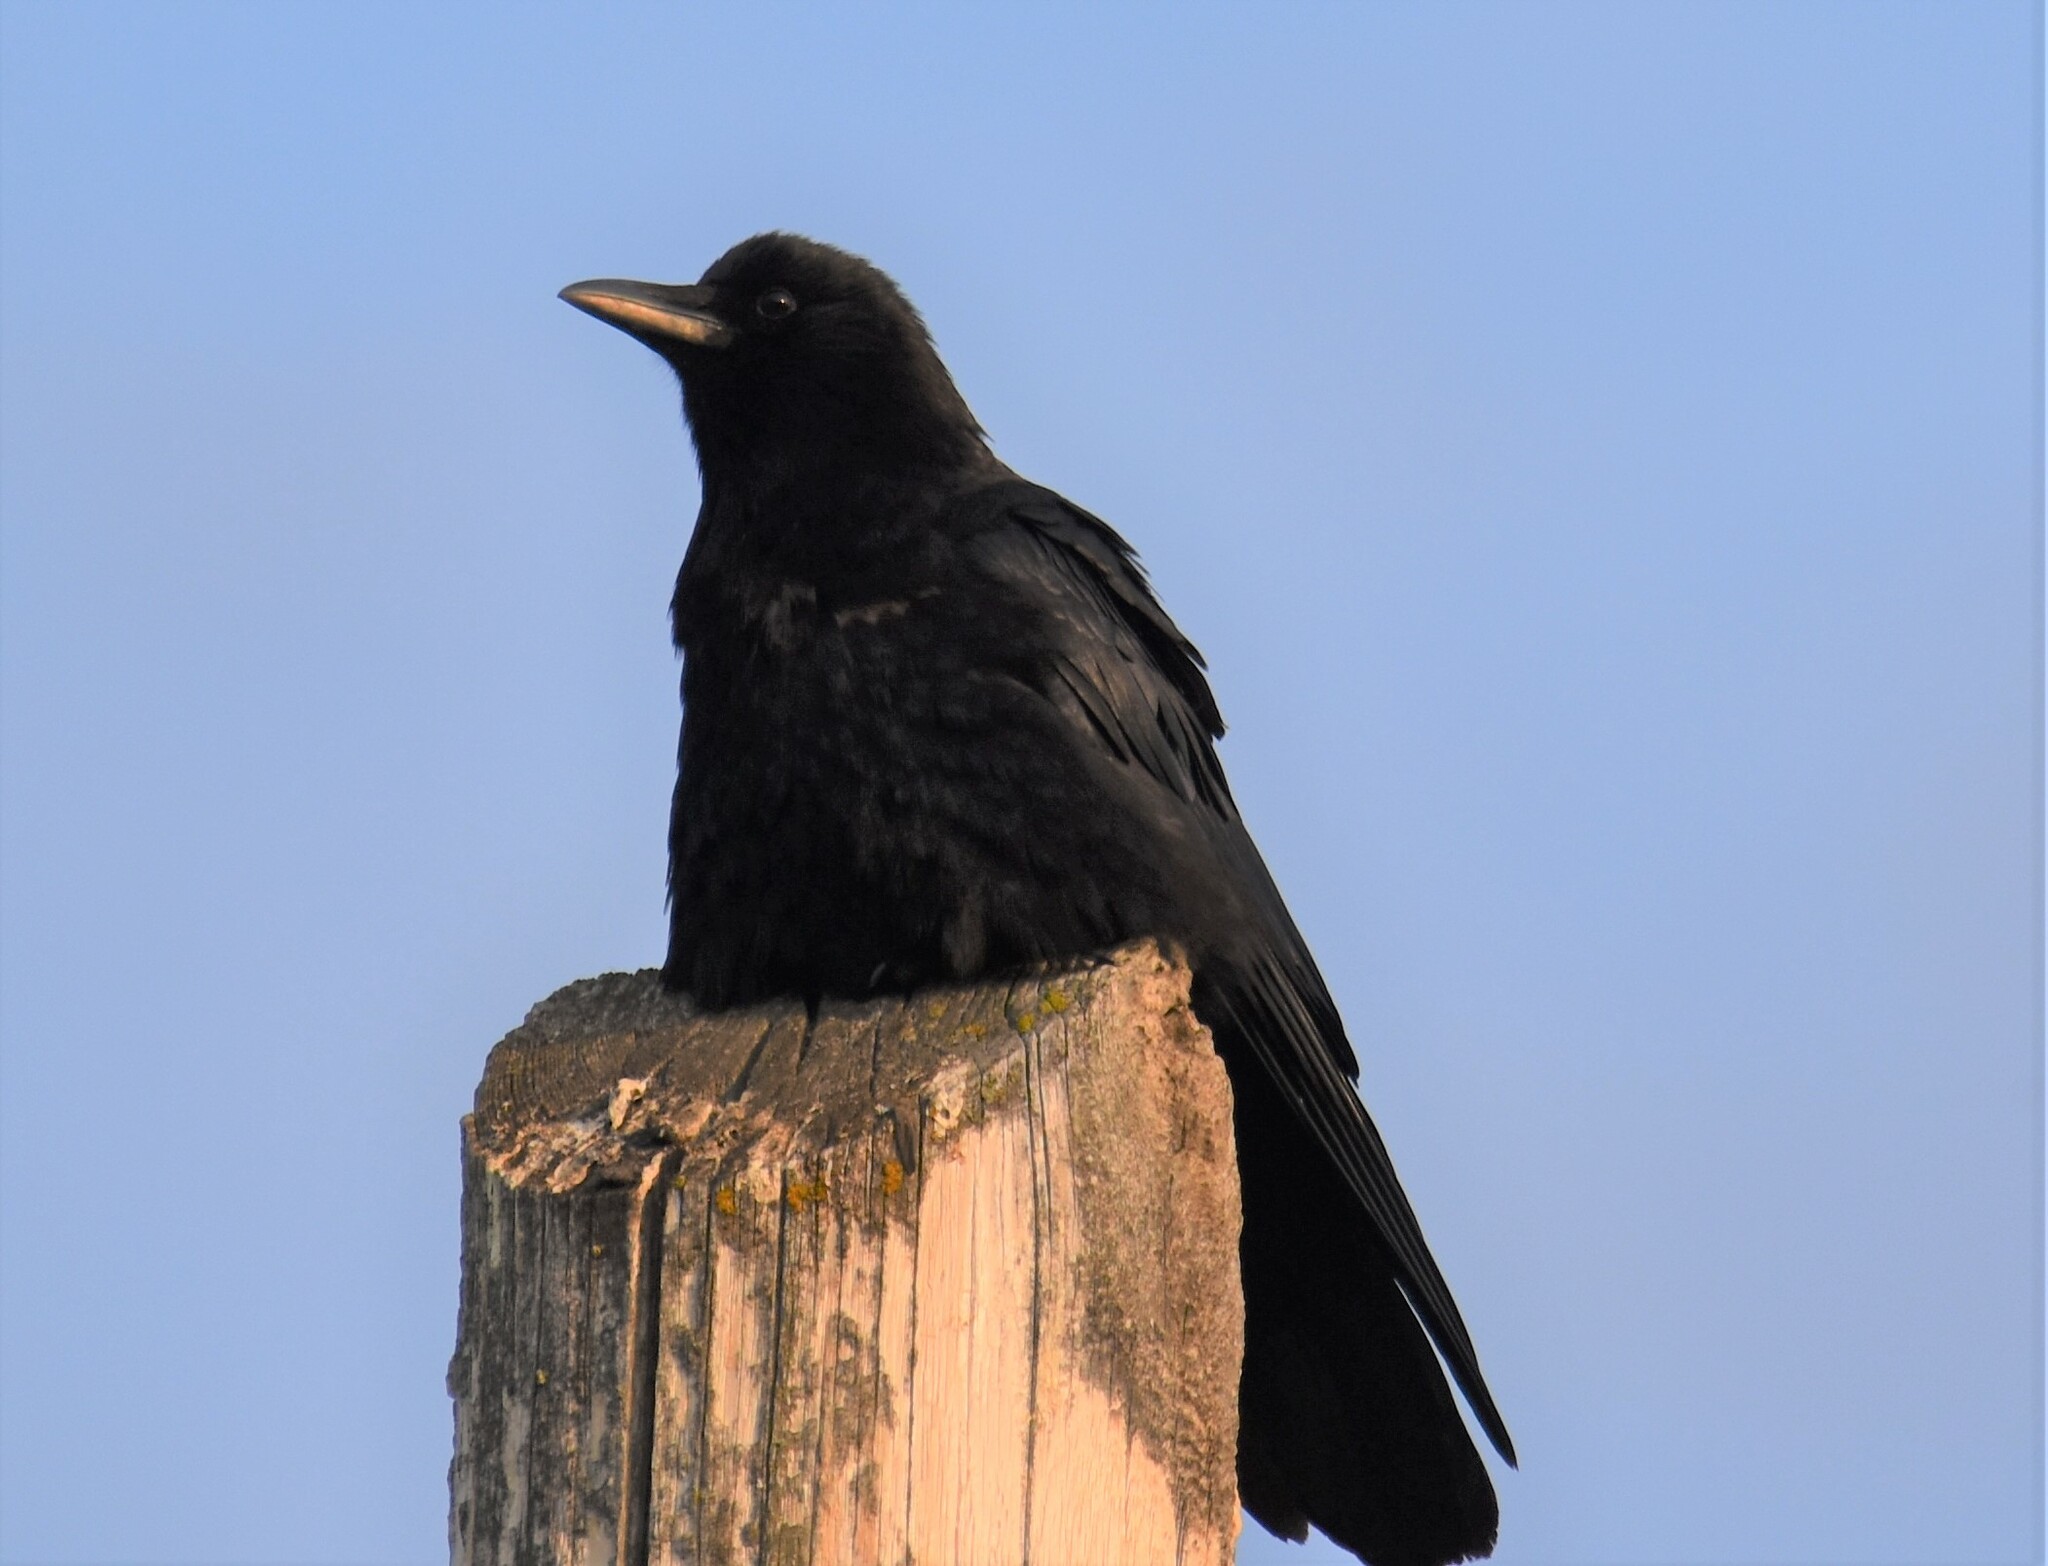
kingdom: Animalia
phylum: Chordata
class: Aves
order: Passeriformes
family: Corvidae
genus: Corvus
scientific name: Corvus brachyrhynchos
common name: American crow
